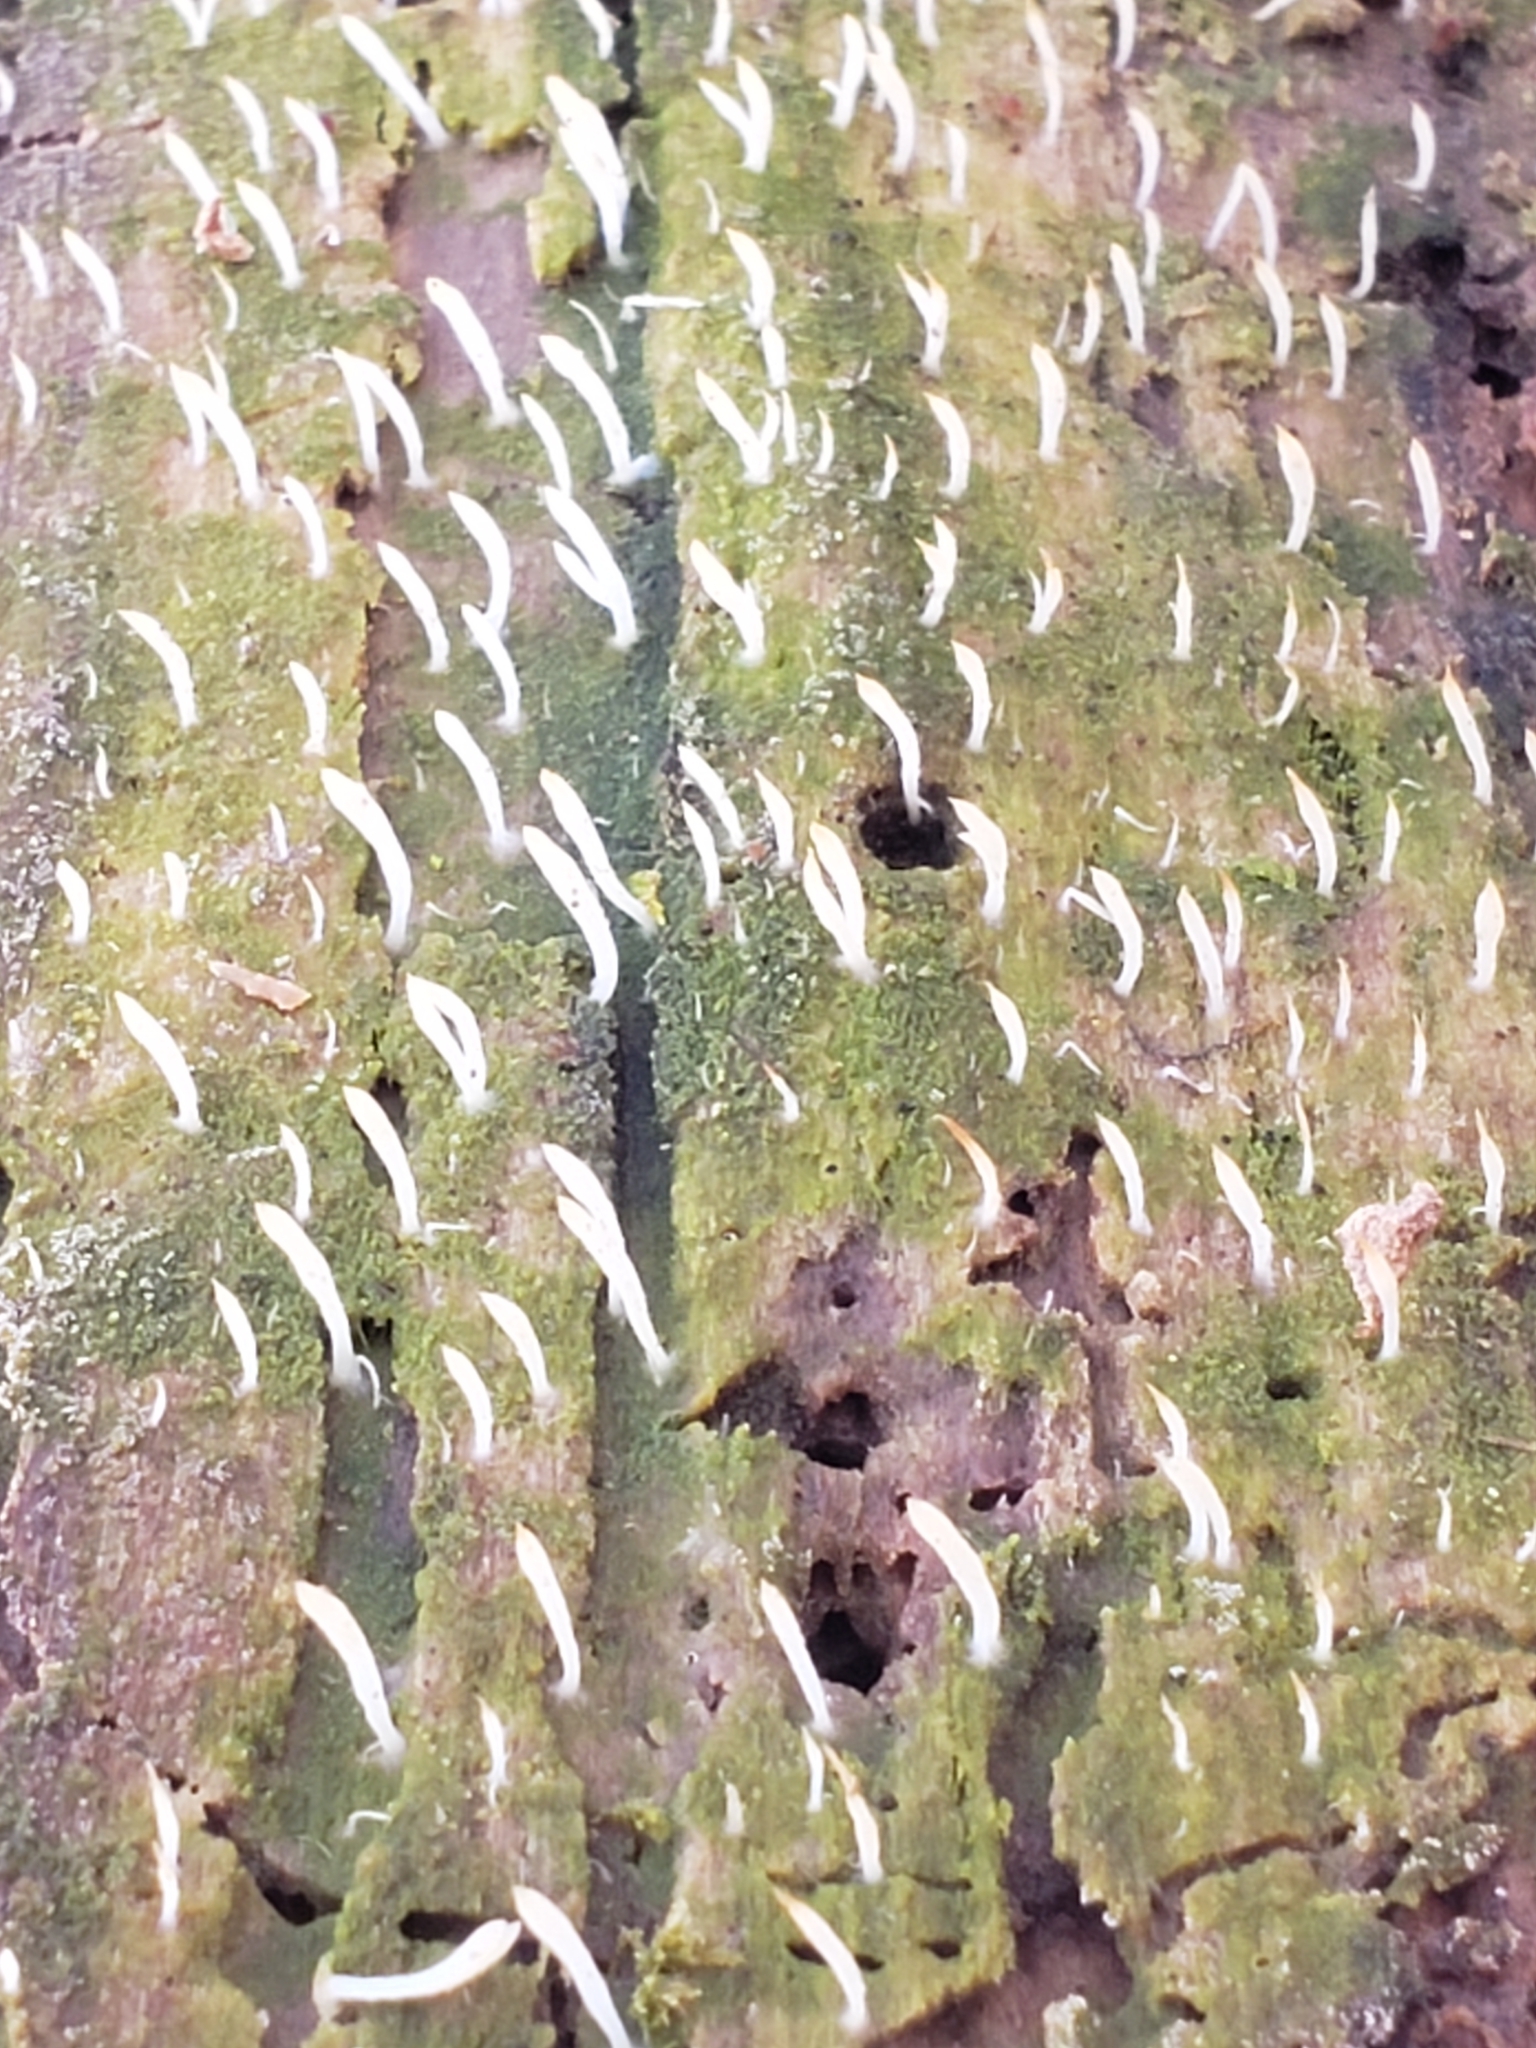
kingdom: Fungi
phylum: Basidiomycota
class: Agaricomycetes
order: Cantharellales
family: Hydnaceae
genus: Multiclavula
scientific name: Multiclavula mucida
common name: White green-algae coral
